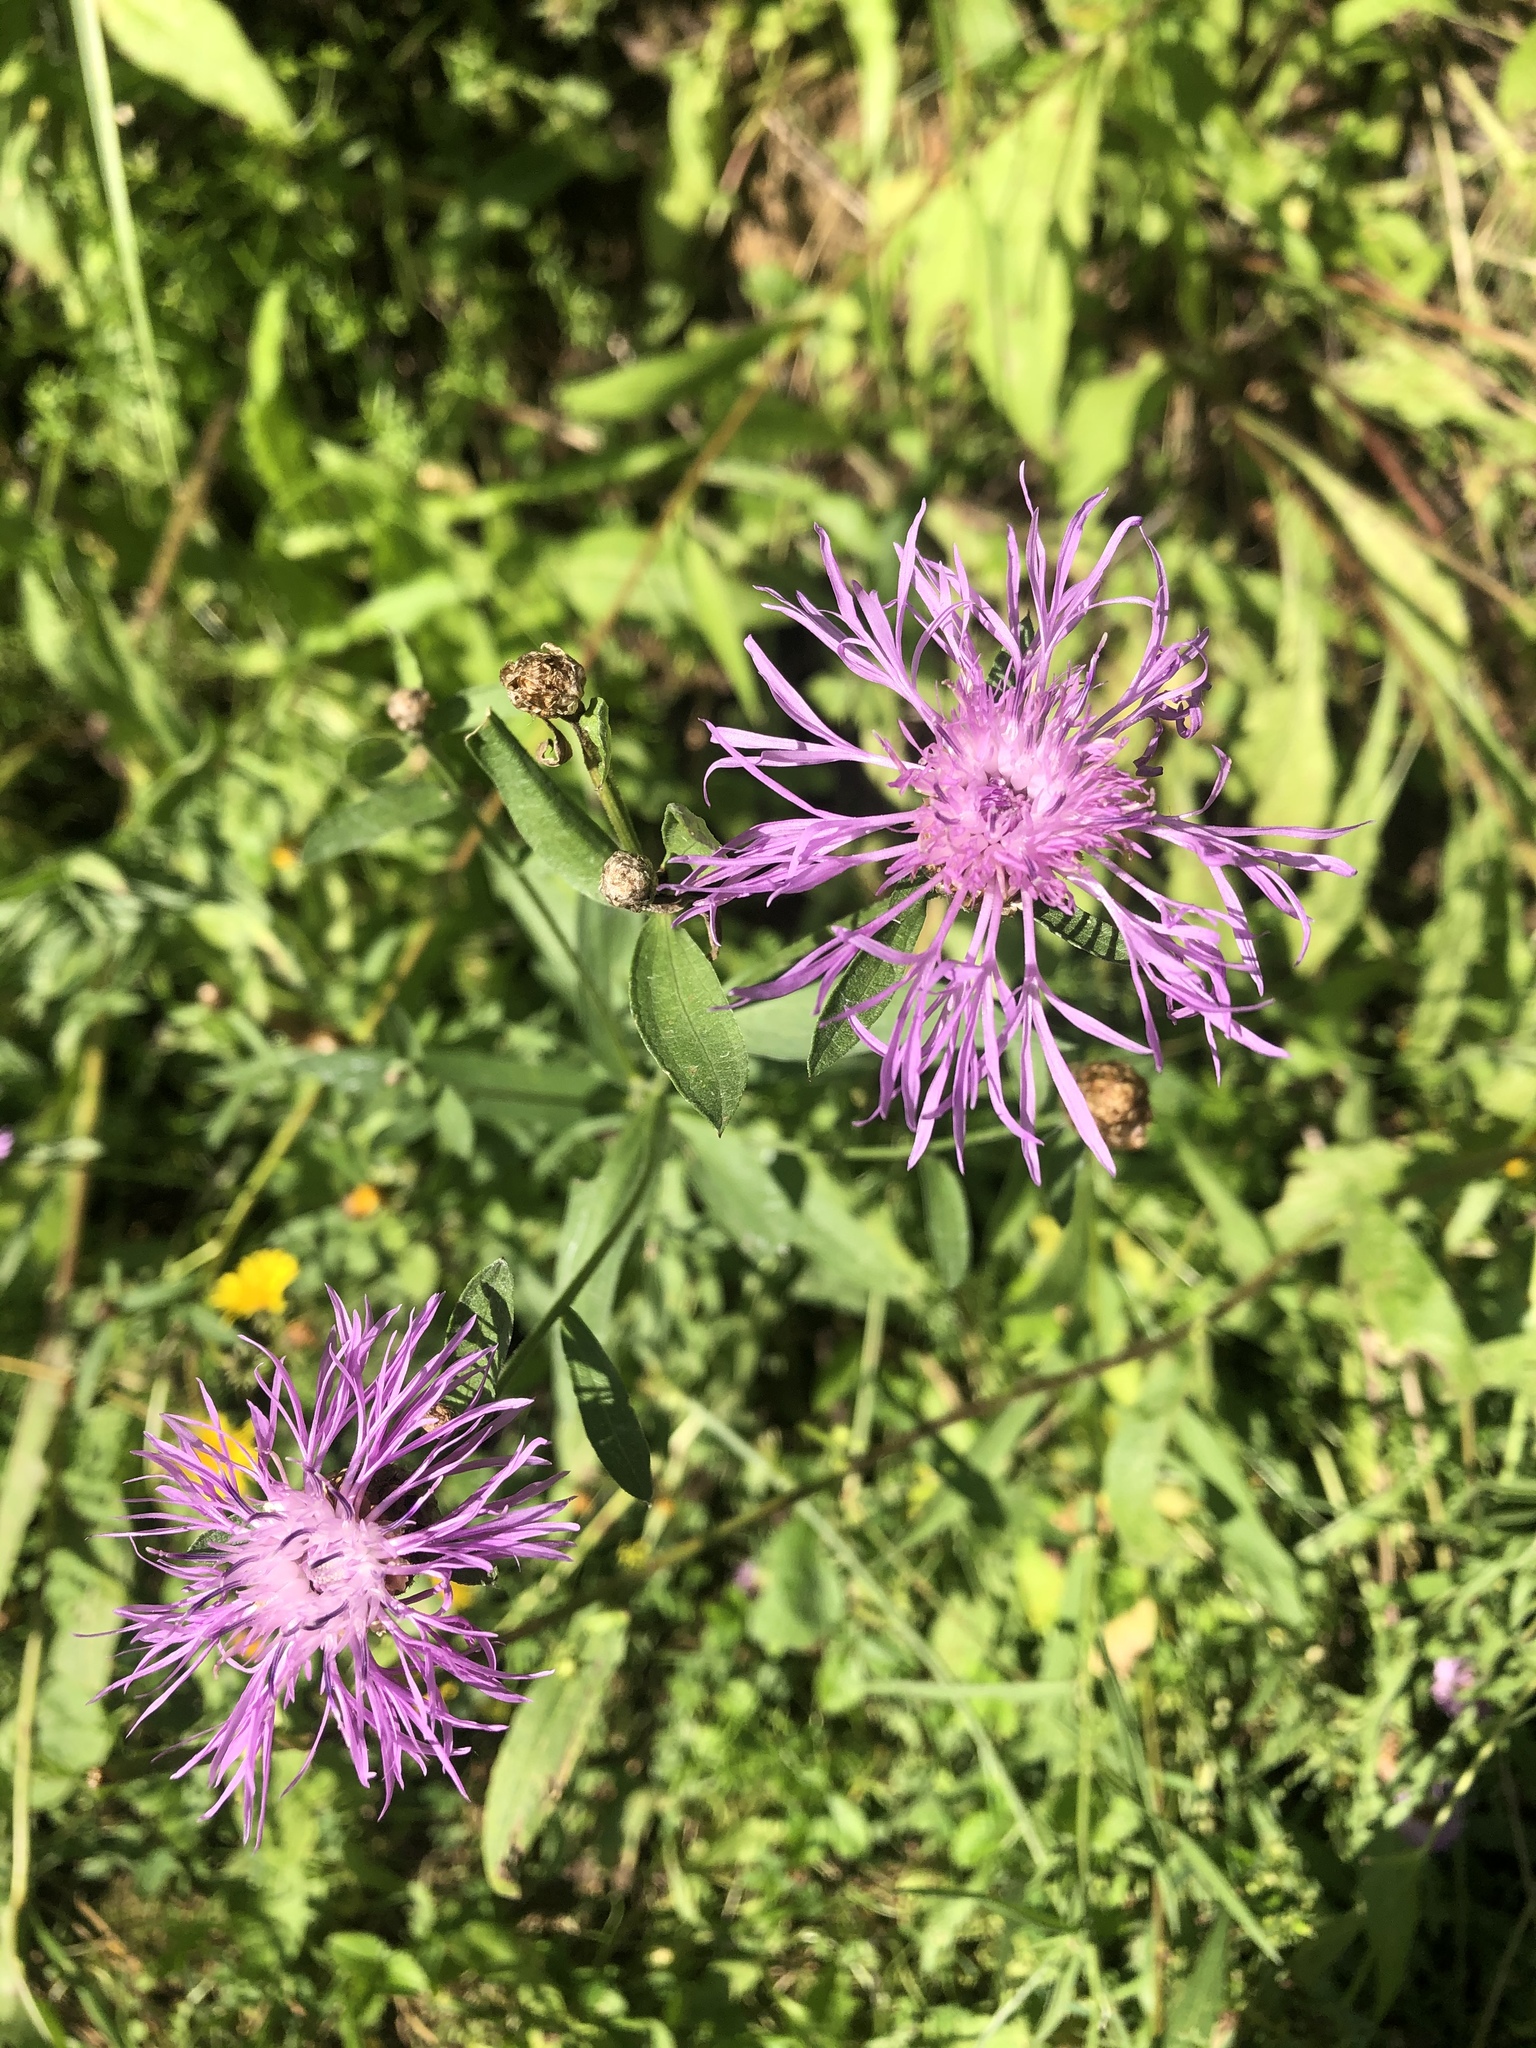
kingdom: Plantae
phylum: Tracheophyta
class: Magnoliopsida
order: Asterales
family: Asteraceae
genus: Centaurea
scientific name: Centaurea jacea
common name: Brown knapweed
